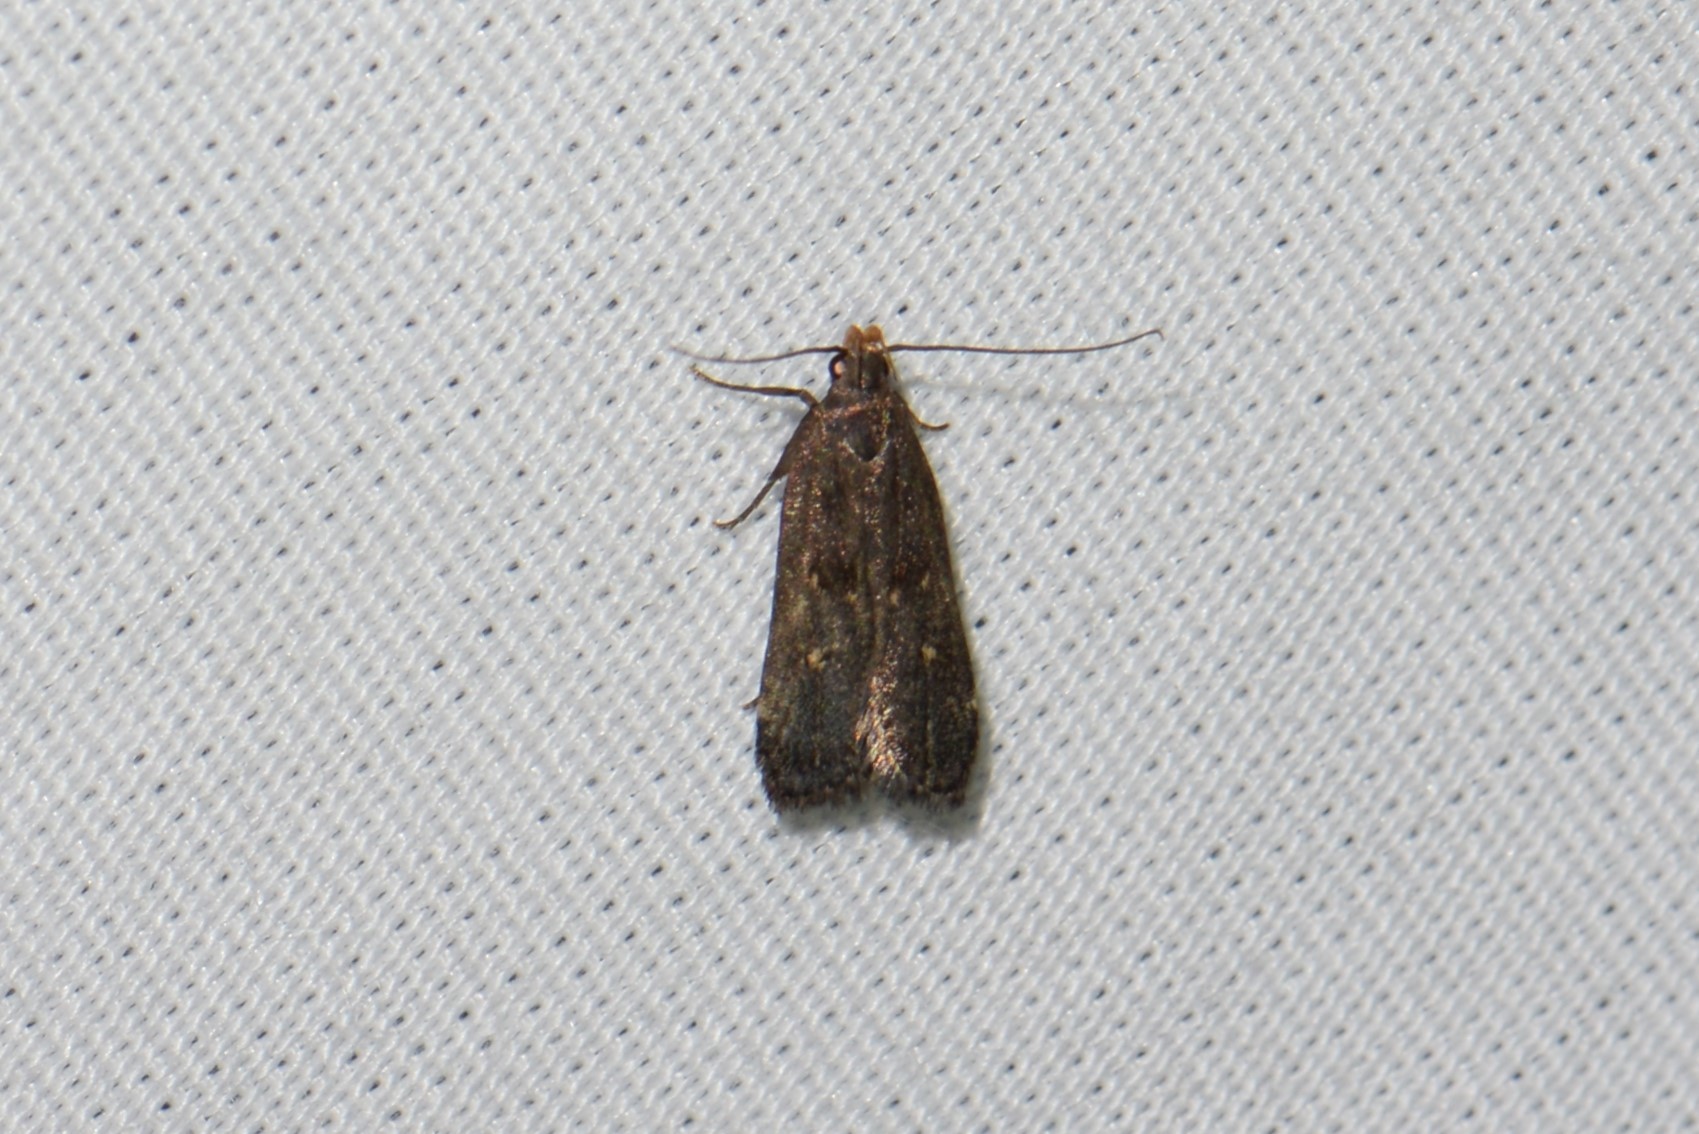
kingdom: Animalia
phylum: Arthropoda
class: Insecta
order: Lepidoptera
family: Gelechiidae
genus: Dichomeris
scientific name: Dichomeris juncidella
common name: Orange-dotted dichomeris moth
